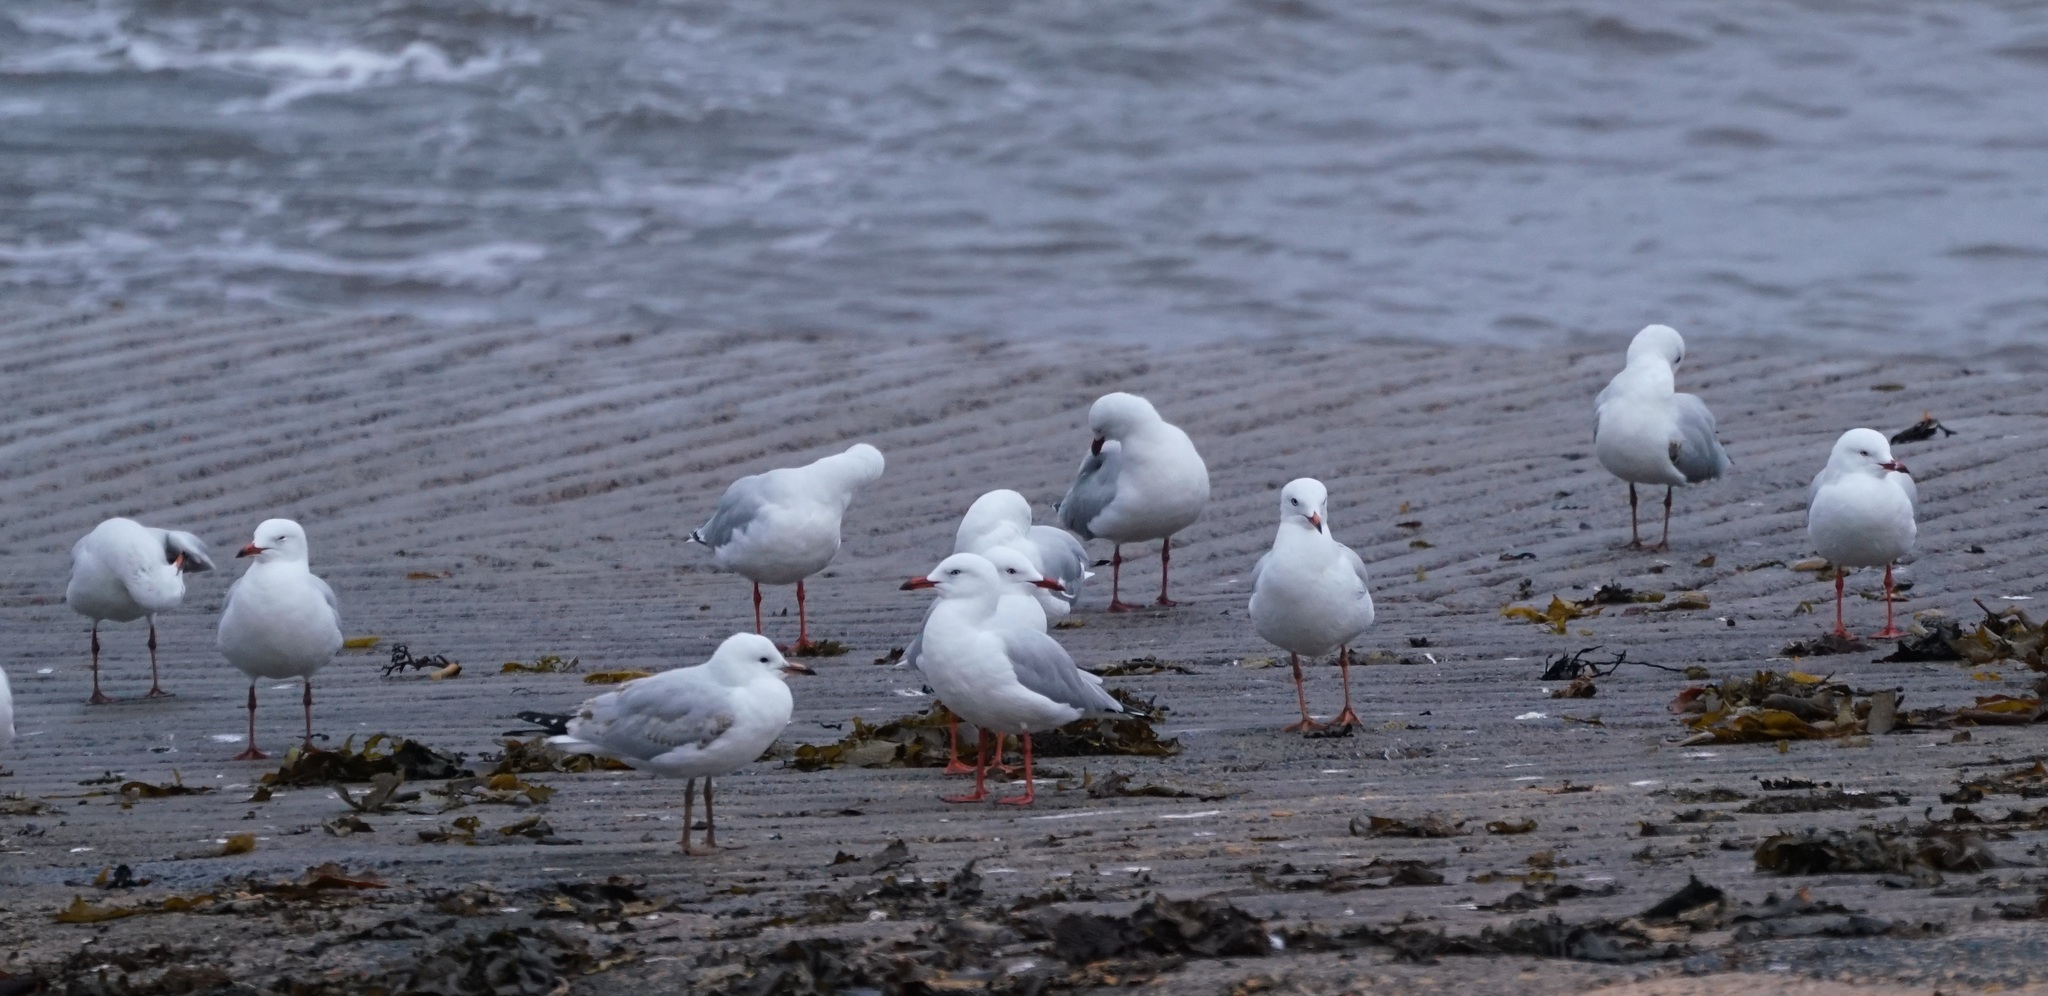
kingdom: Animalia
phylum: Chordata
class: Aves
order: Charadriiformes
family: Laridae
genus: Chroicocephalus
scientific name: Chroicocephalus novaehollandiae
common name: Silver gull
